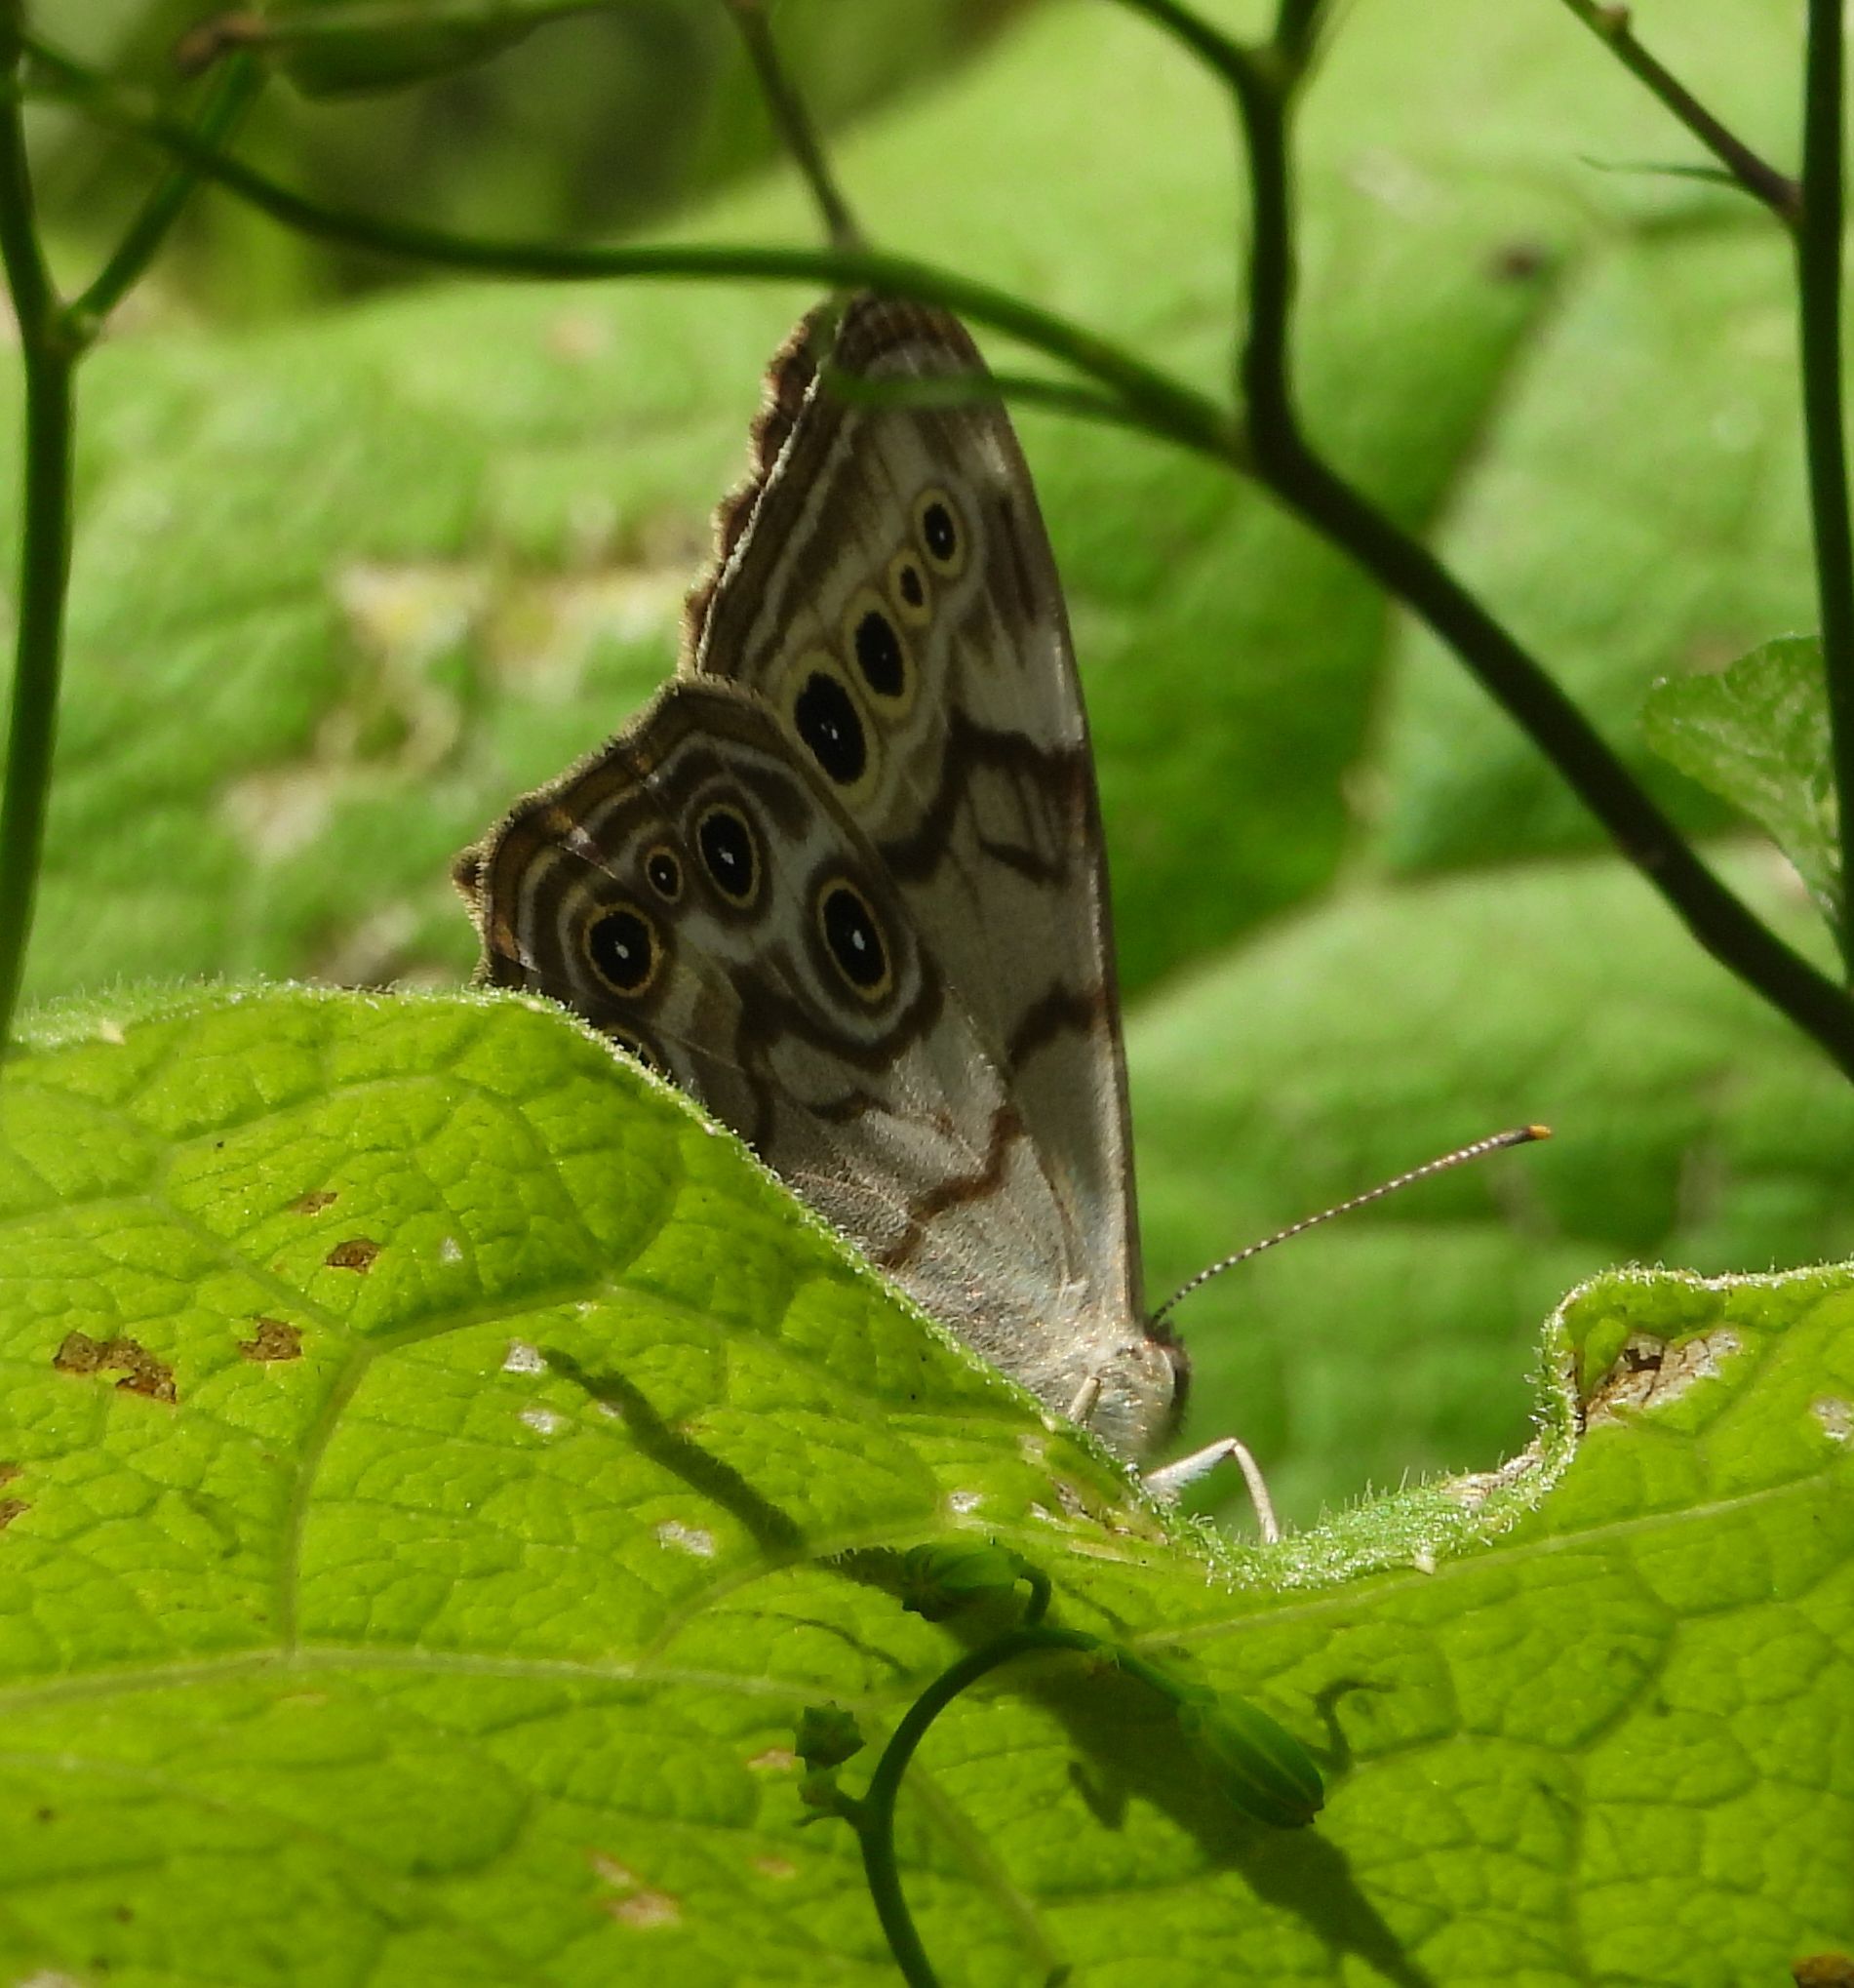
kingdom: Animalia
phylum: Arthropoda
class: Insecta
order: Lepidoptera
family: Nymphalidae
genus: Lethe
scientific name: Lethe anthedon
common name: Northern pearly-eye
